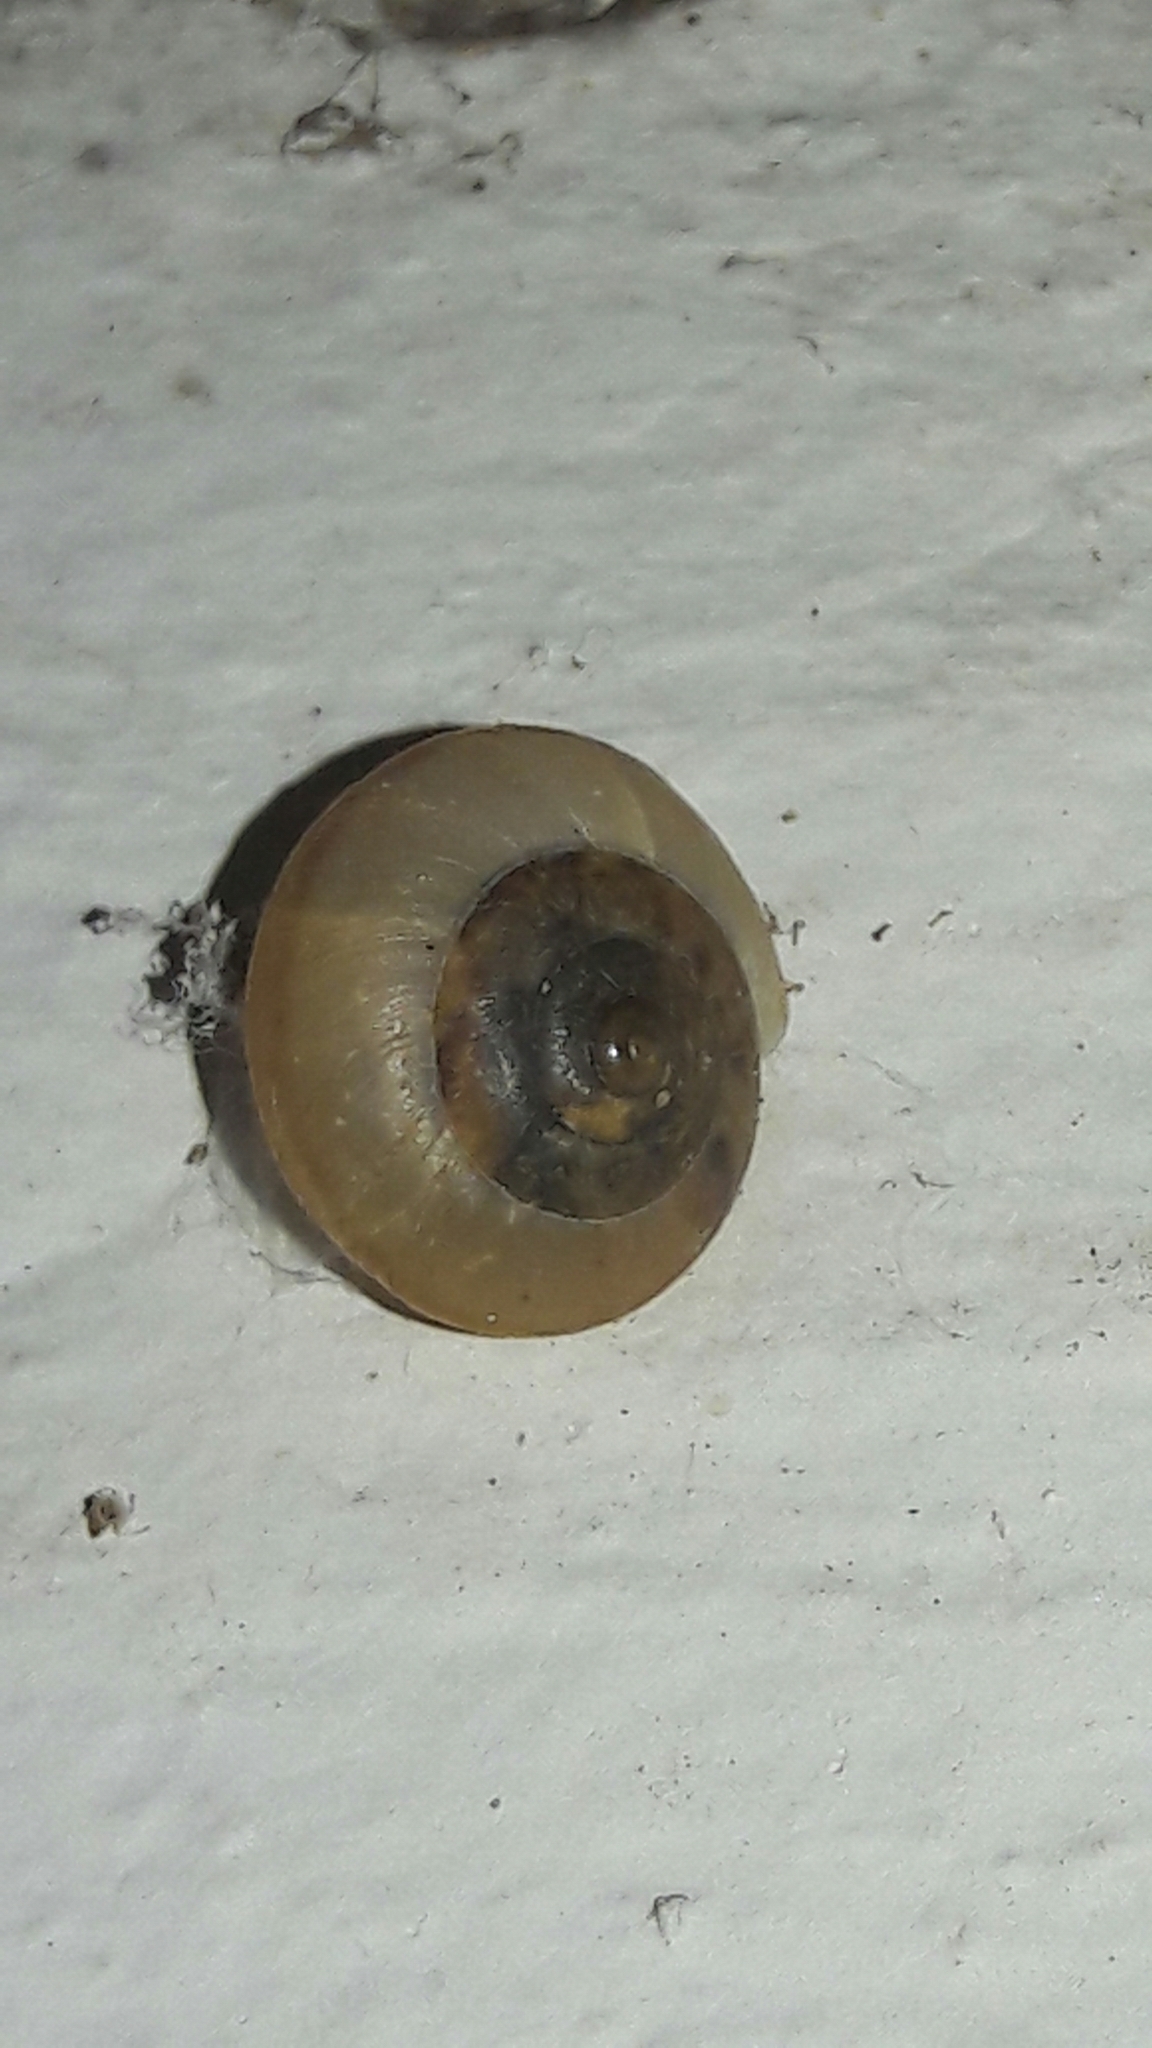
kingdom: Animalia
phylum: Mollusca
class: Gastropoda
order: Stylommatophora
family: Camaenidae
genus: Bradybaena
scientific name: Bradybaena similaris
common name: Asian trampsnail
